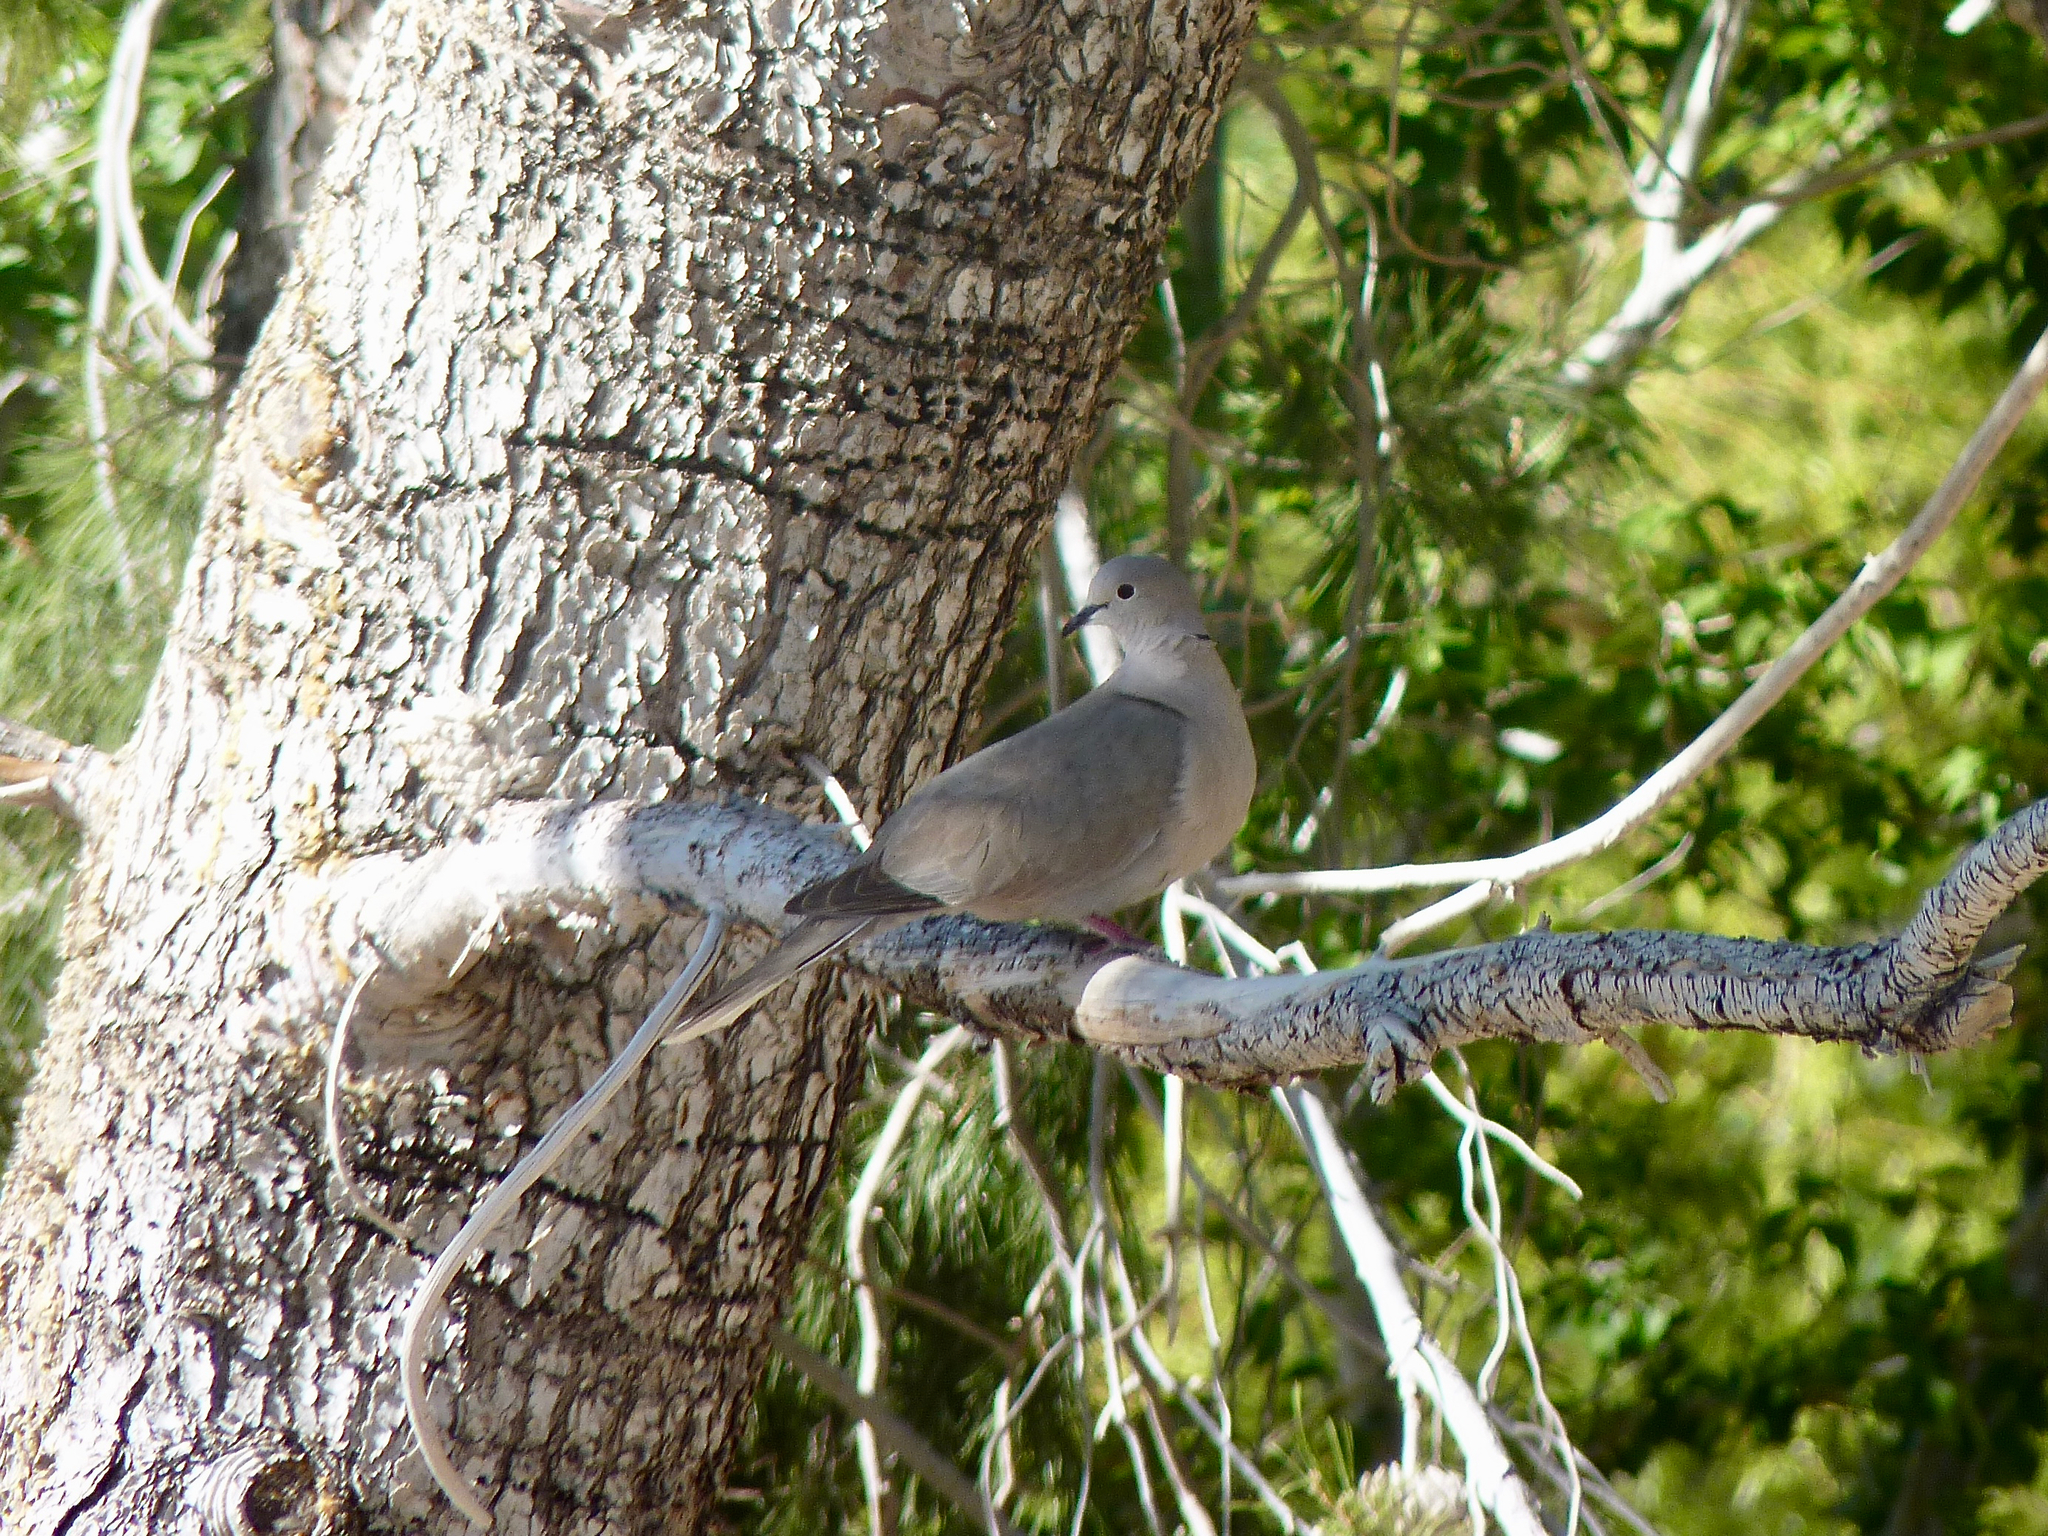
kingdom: Animalia
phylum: Chordata
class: Aves
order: Columbiformes
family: Columbidae
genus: Streptopelia
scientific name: Streptopelia decaocto
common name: Eurasian collared dove
